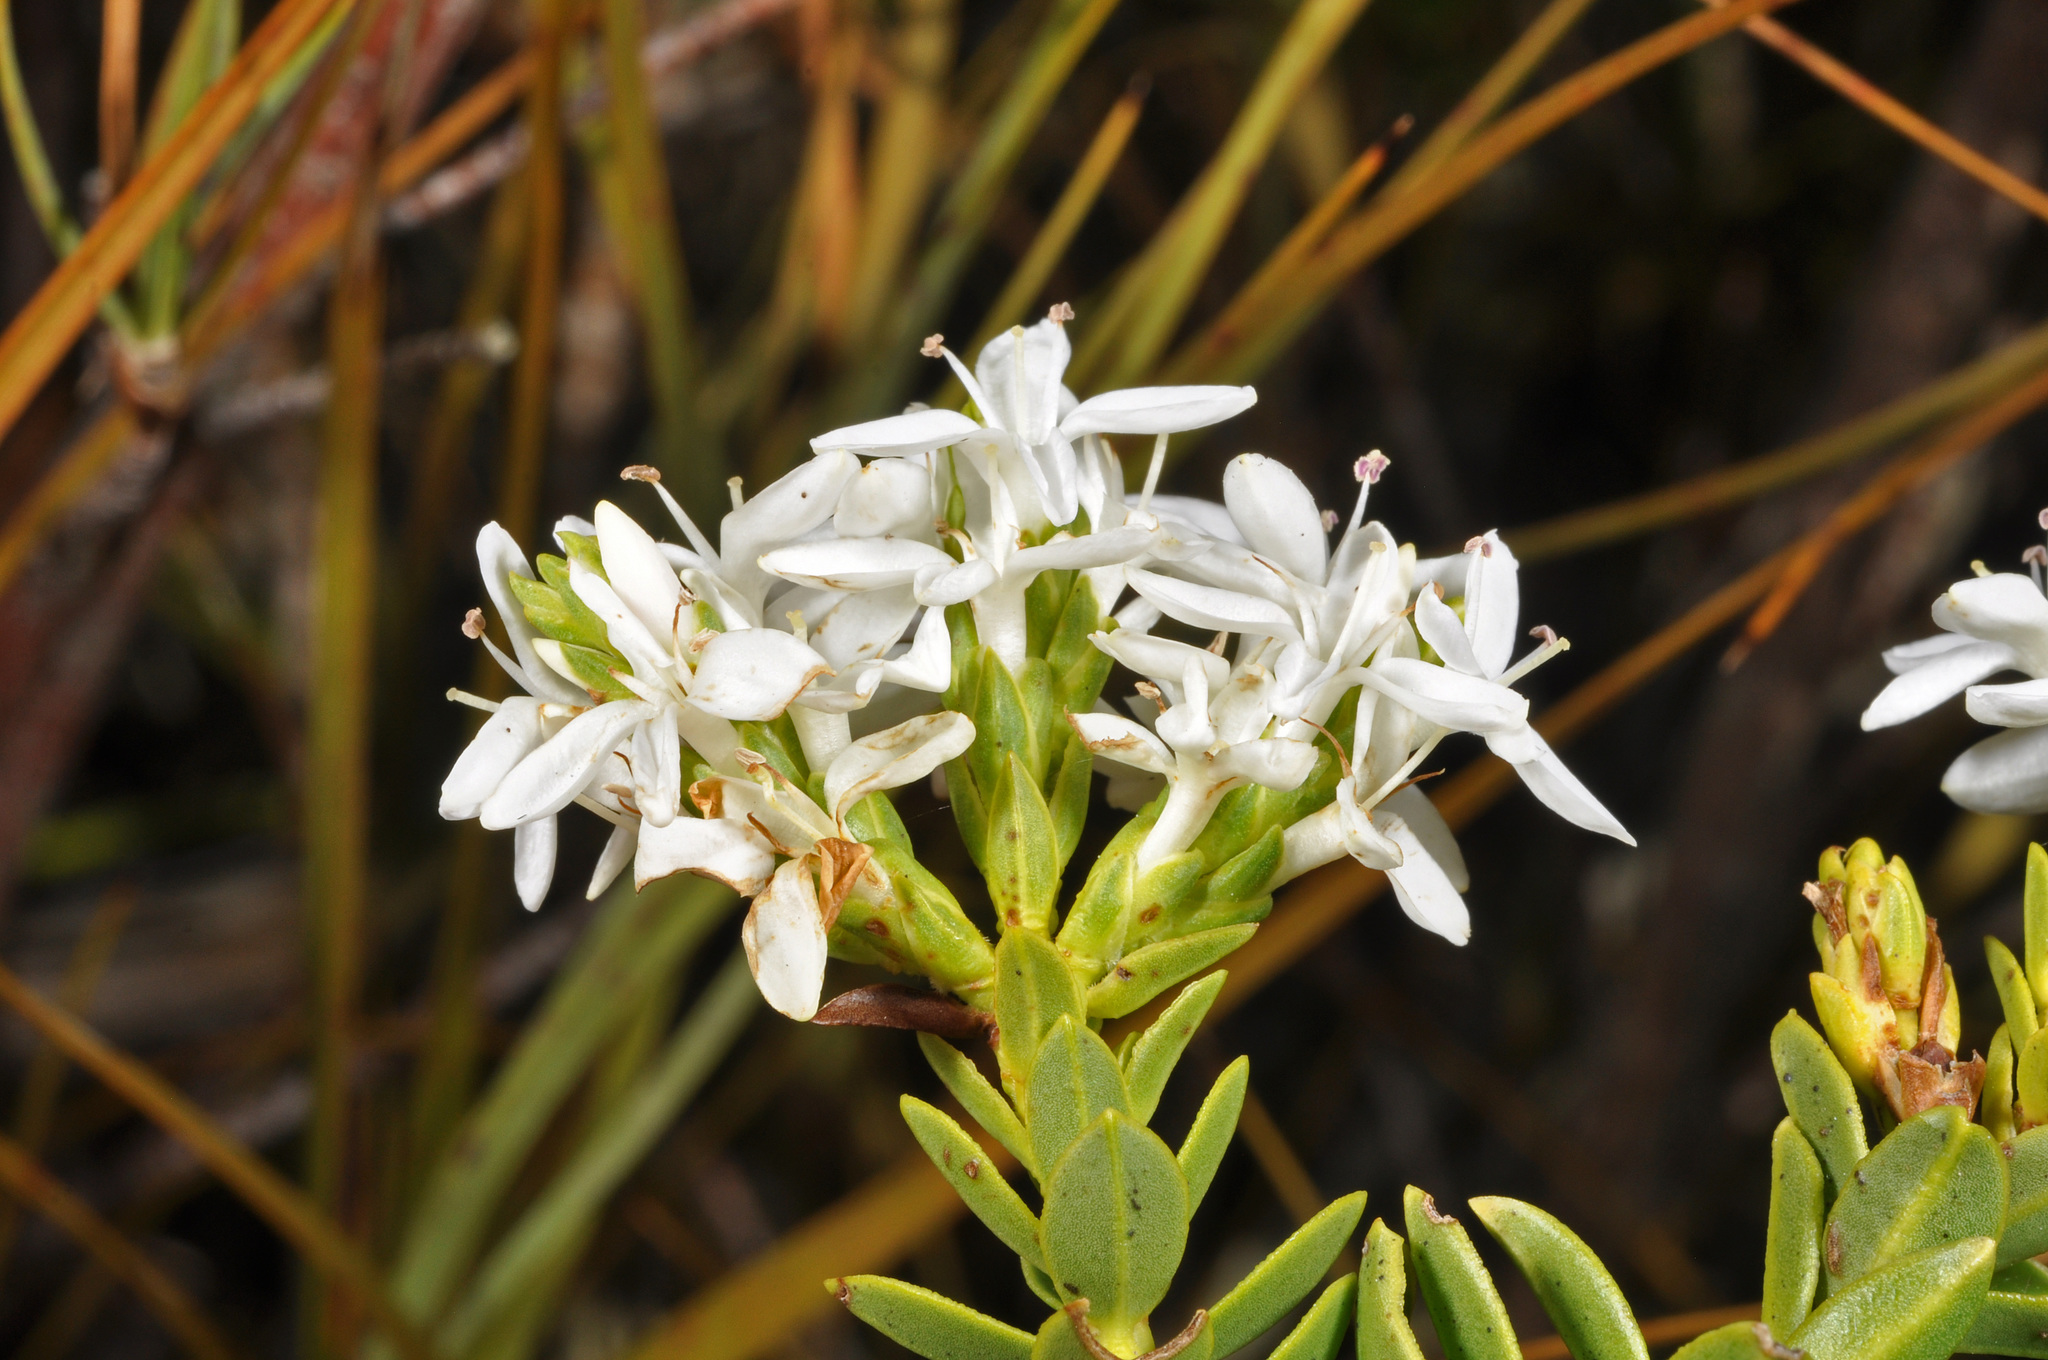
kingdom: Plantae
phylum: Tracheophyta
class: Magnoliopsida
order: Lamiales
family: Plantaginaceae
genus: Veronica
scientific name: Veronica odora
